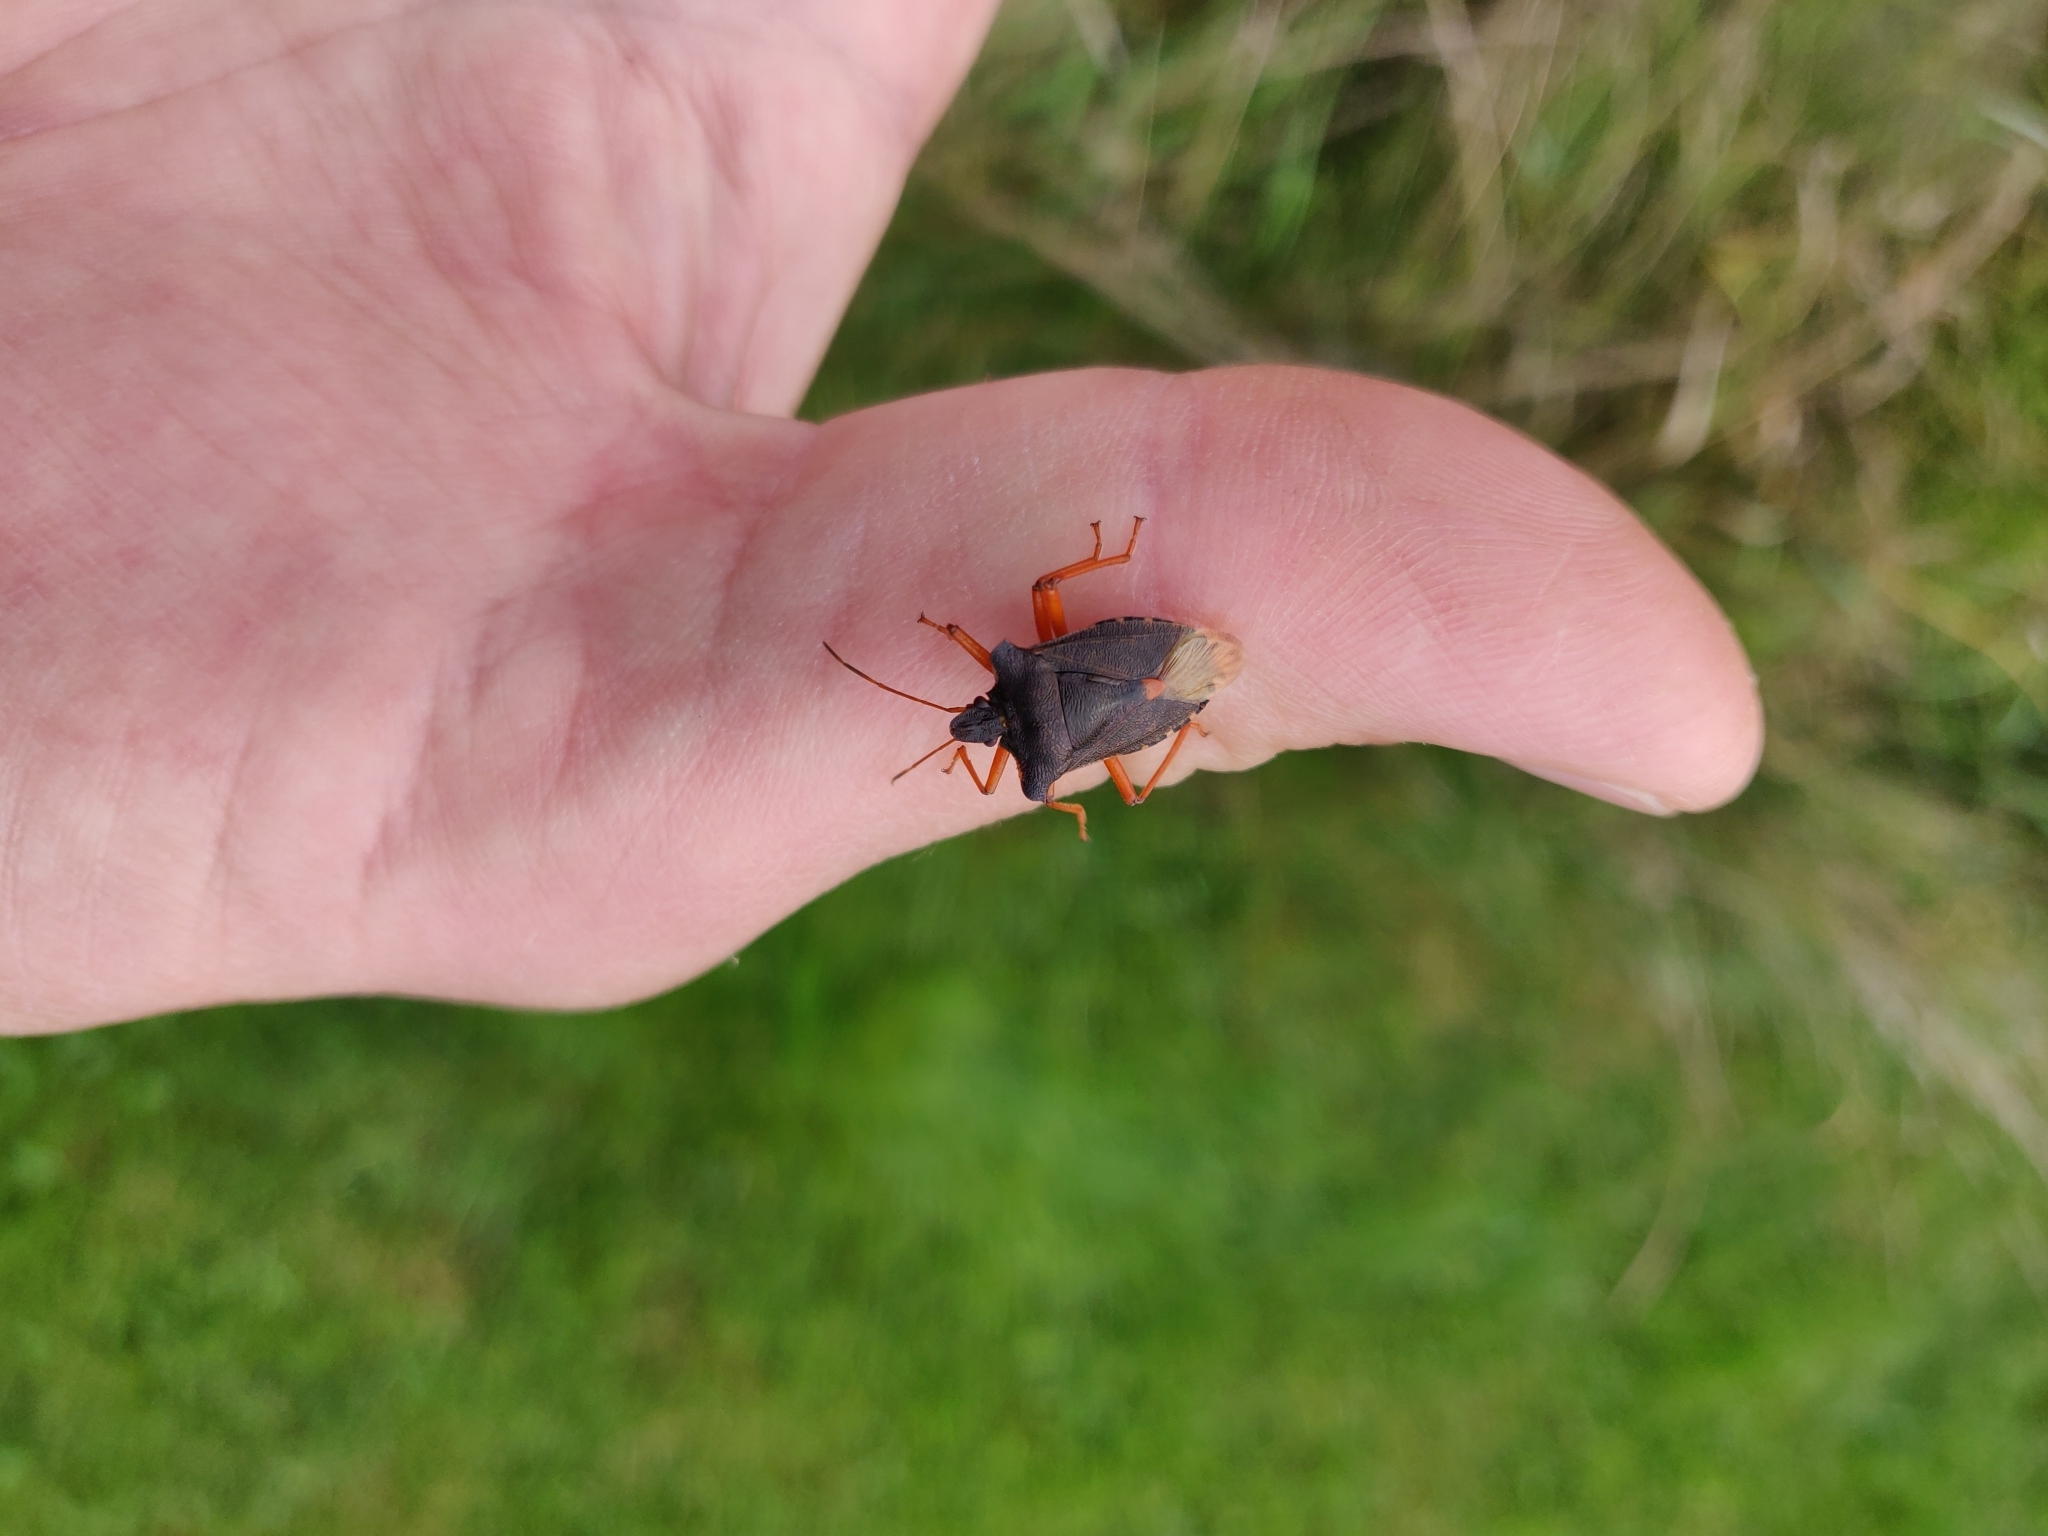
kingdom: Animalia
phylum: Arthropoda
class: Insecta
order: Hemiptera
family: Pentatomidae
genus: Pentatoma
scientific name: Pentatoma rufipes
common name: Forest bug
